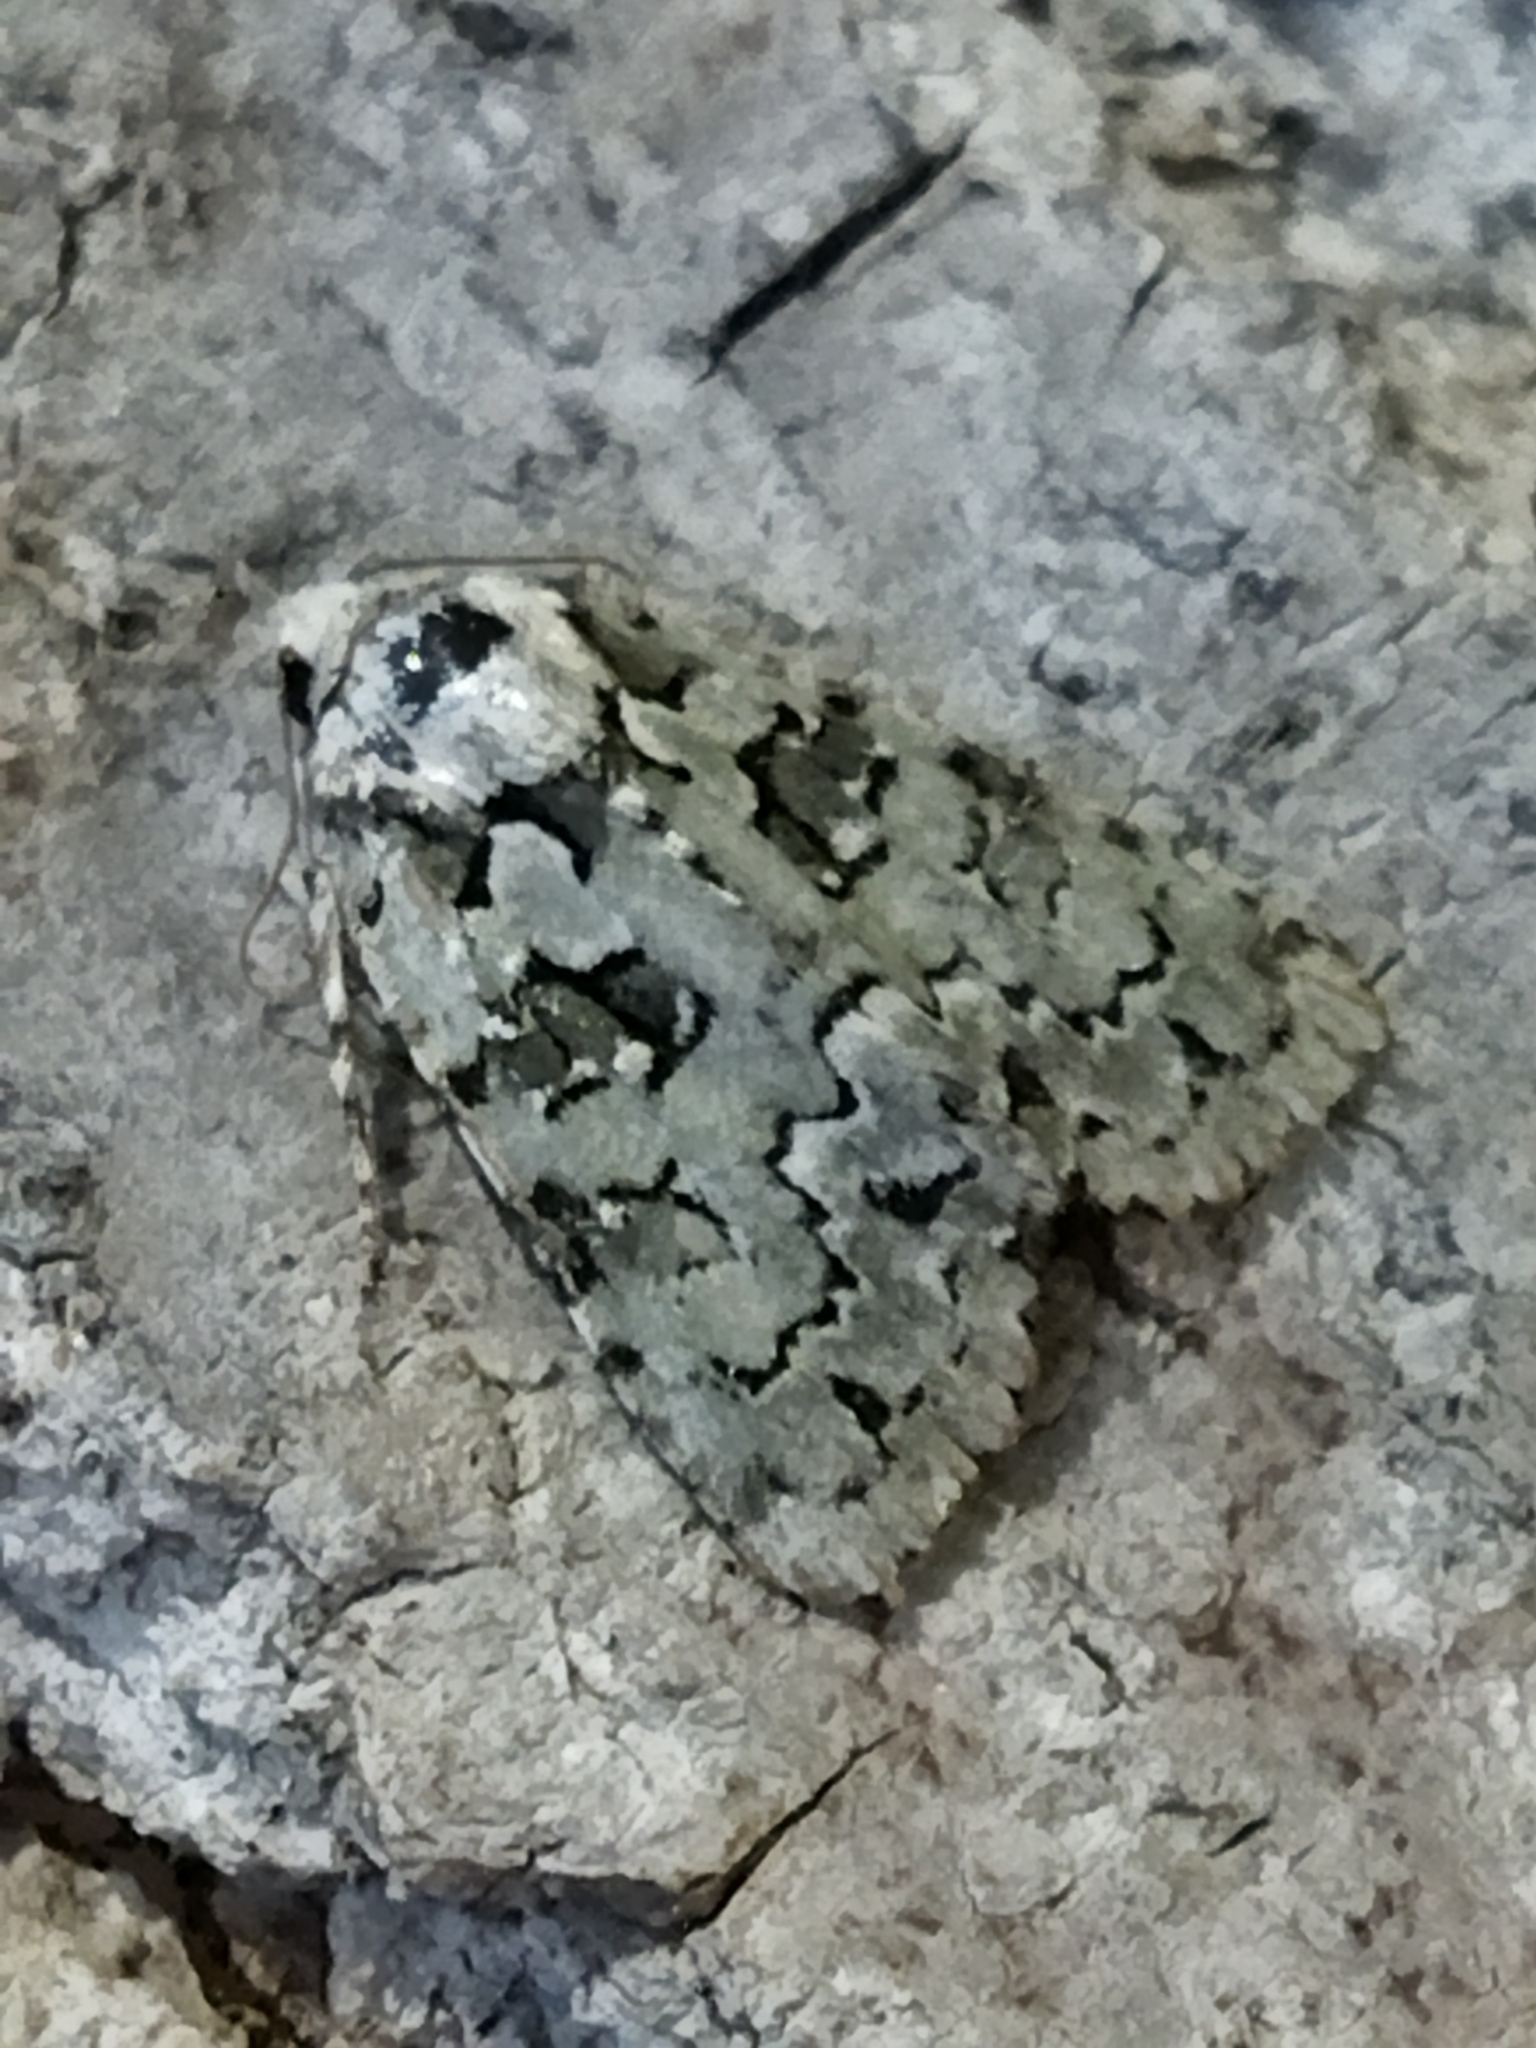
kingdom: Plantae
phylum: Chlorophyta
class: Ulvophyceae
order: Bryopsidales
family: Bryopsidaceae
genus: Bryopsis
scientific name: Bryopsis
